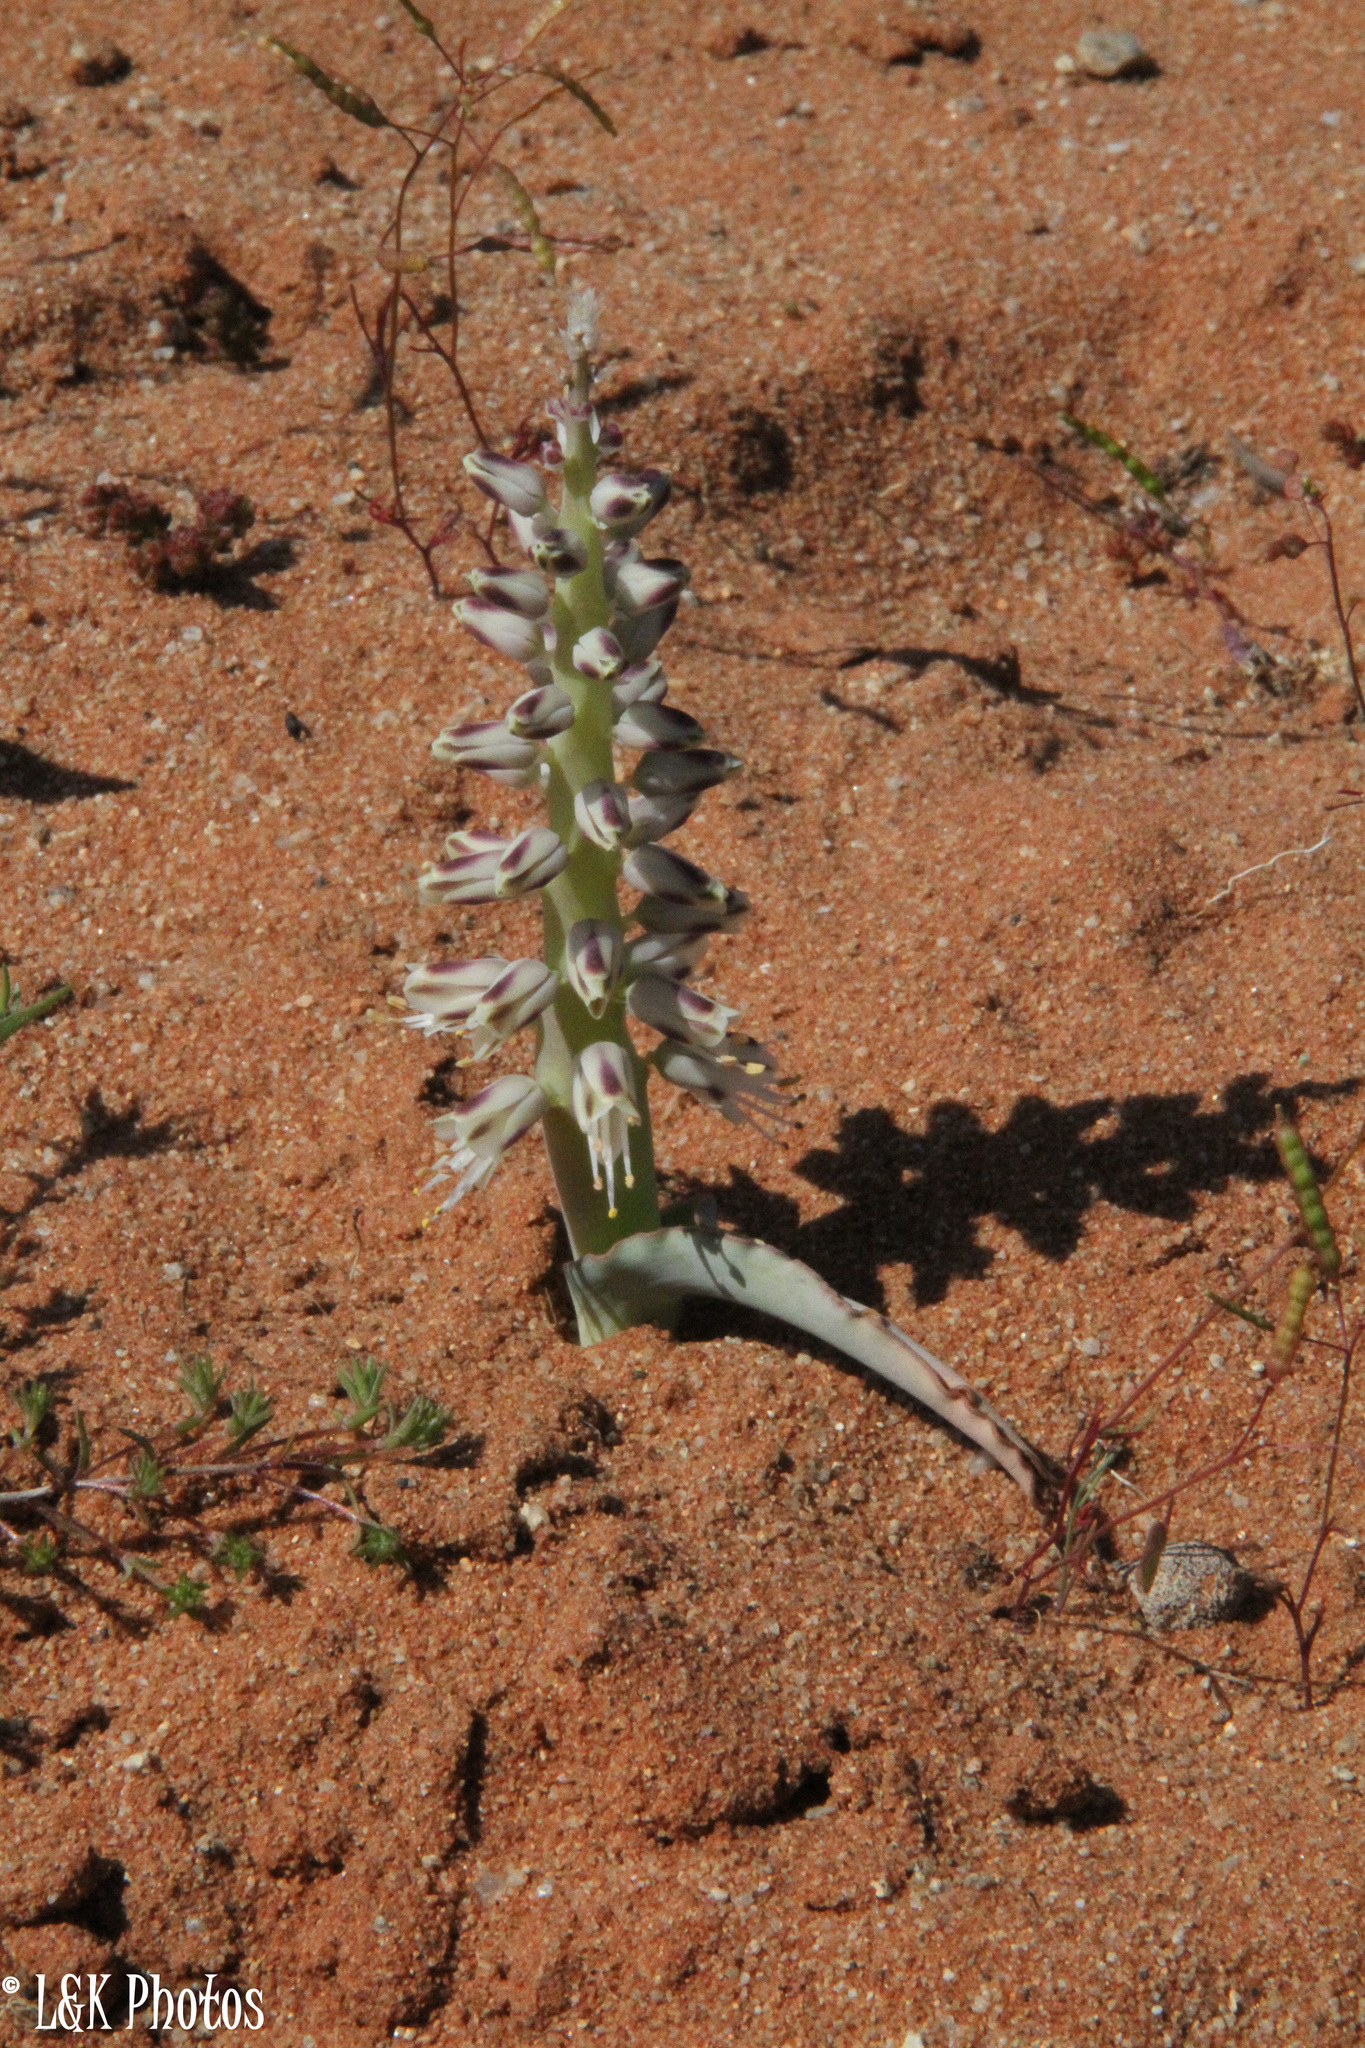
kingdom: Plantae
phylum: Tracheophyta
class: Liliopsida
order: Asparagales
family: Asparagaceae
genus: Lachenalia
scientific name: Lachenalia xerophila
